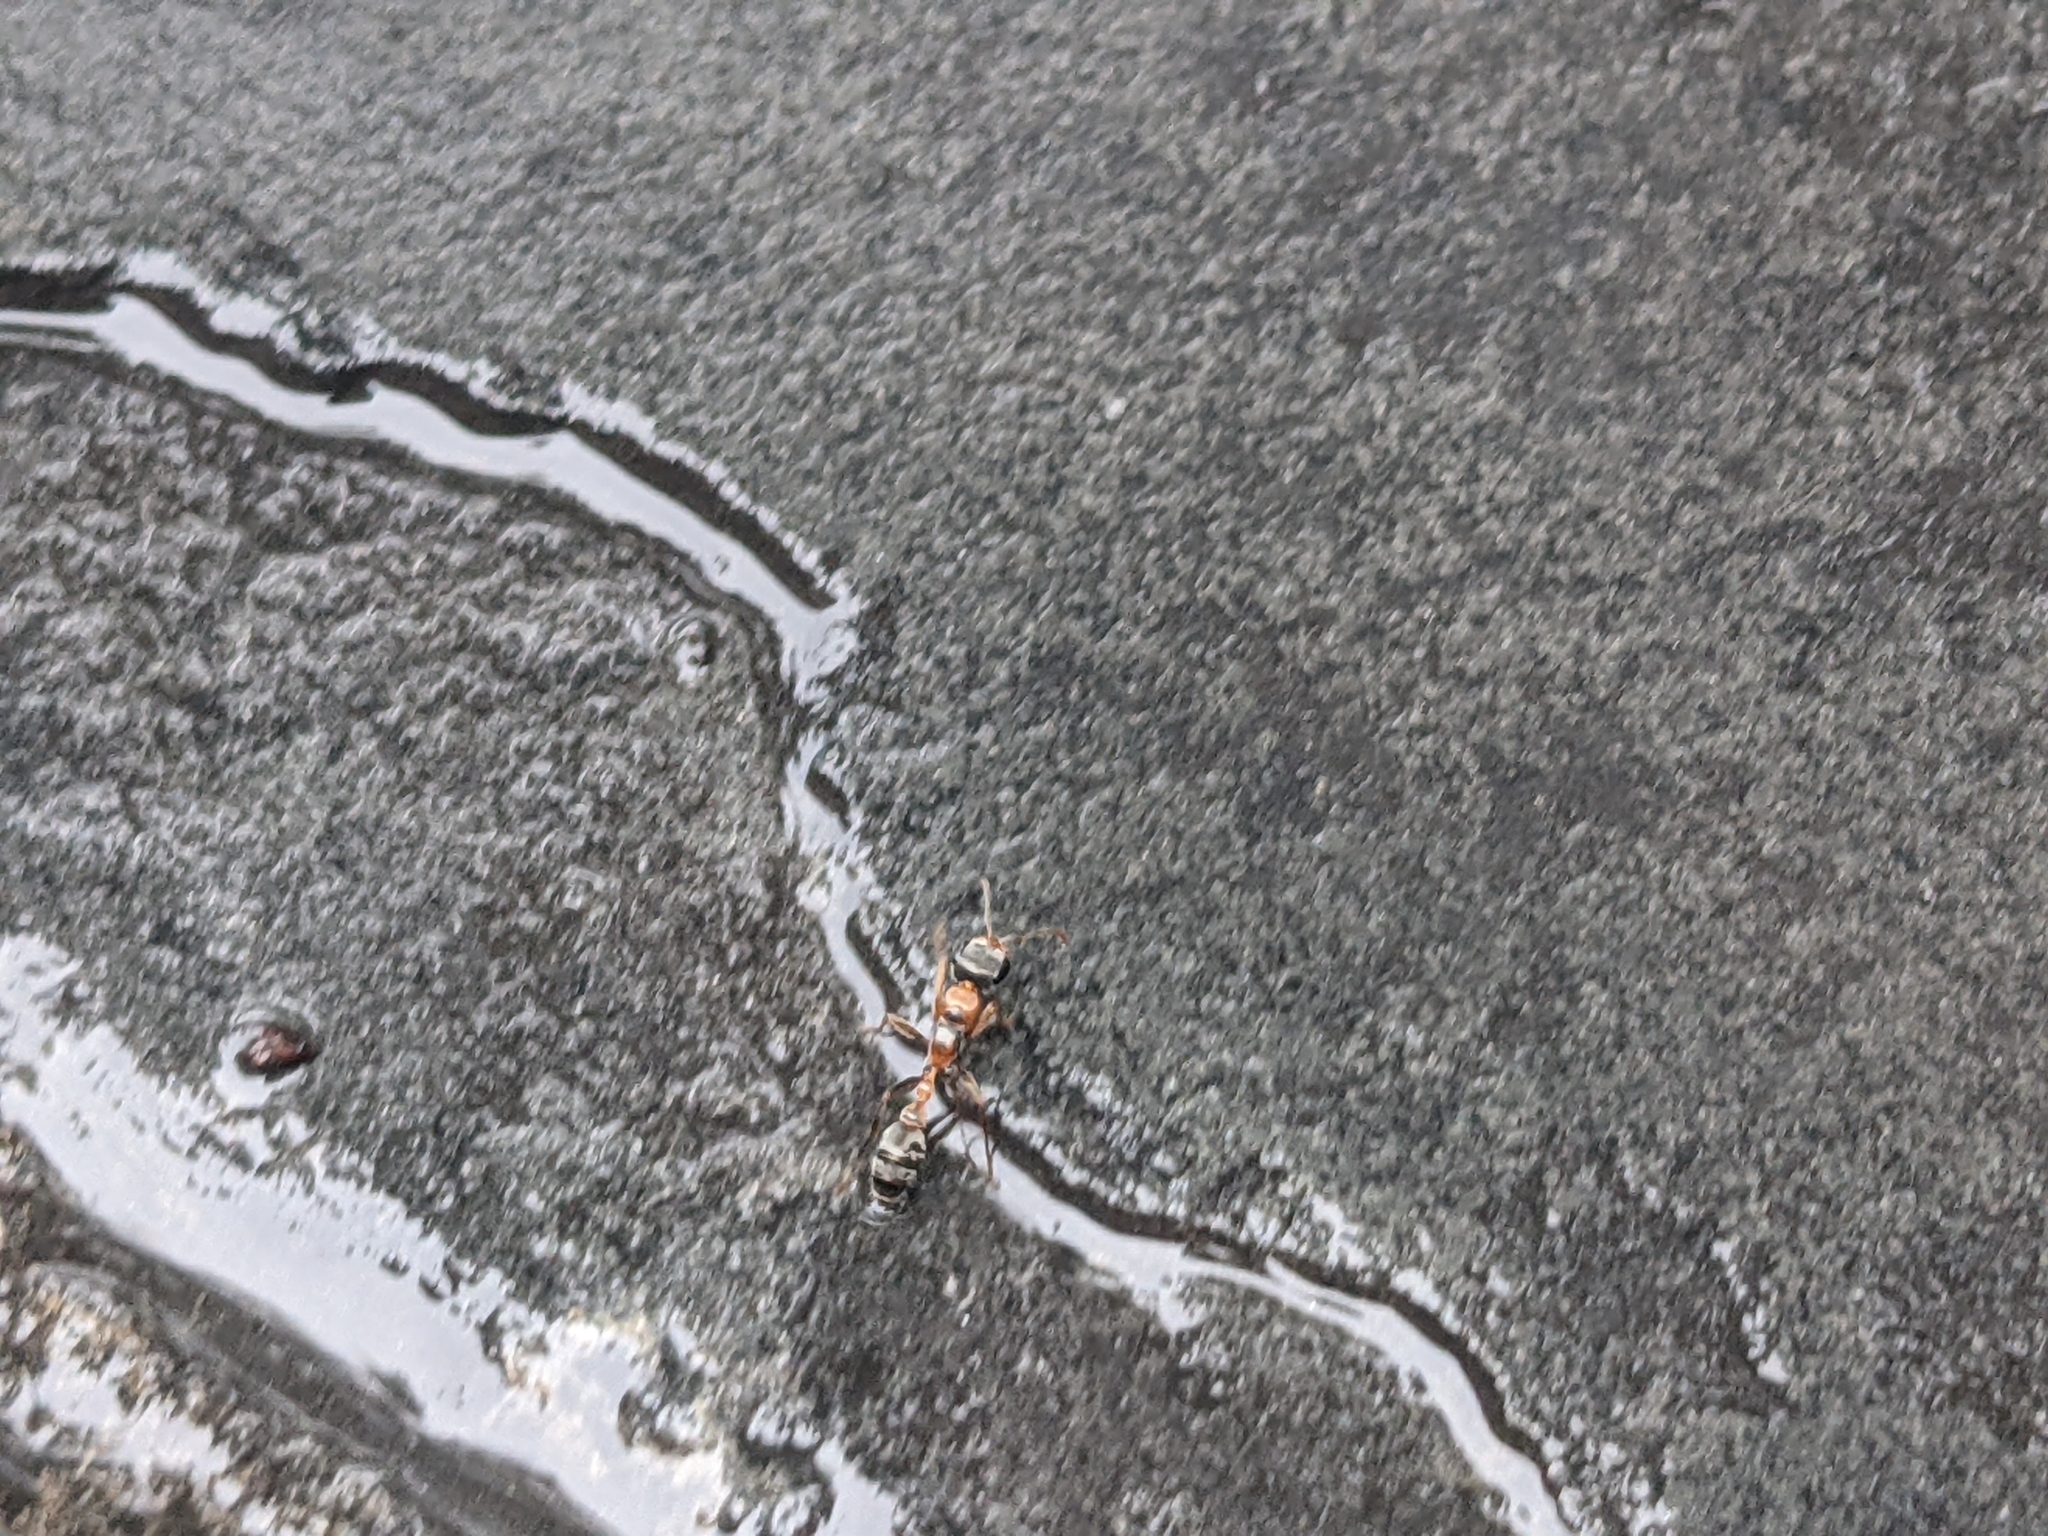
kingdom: Animalia
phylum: Arthropoda
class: Insecta
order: Hymenoptera
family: Formicidae
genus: Pseudomyrmex
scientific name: Pseudomyrmex gracilis
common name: Graceful twig ant
